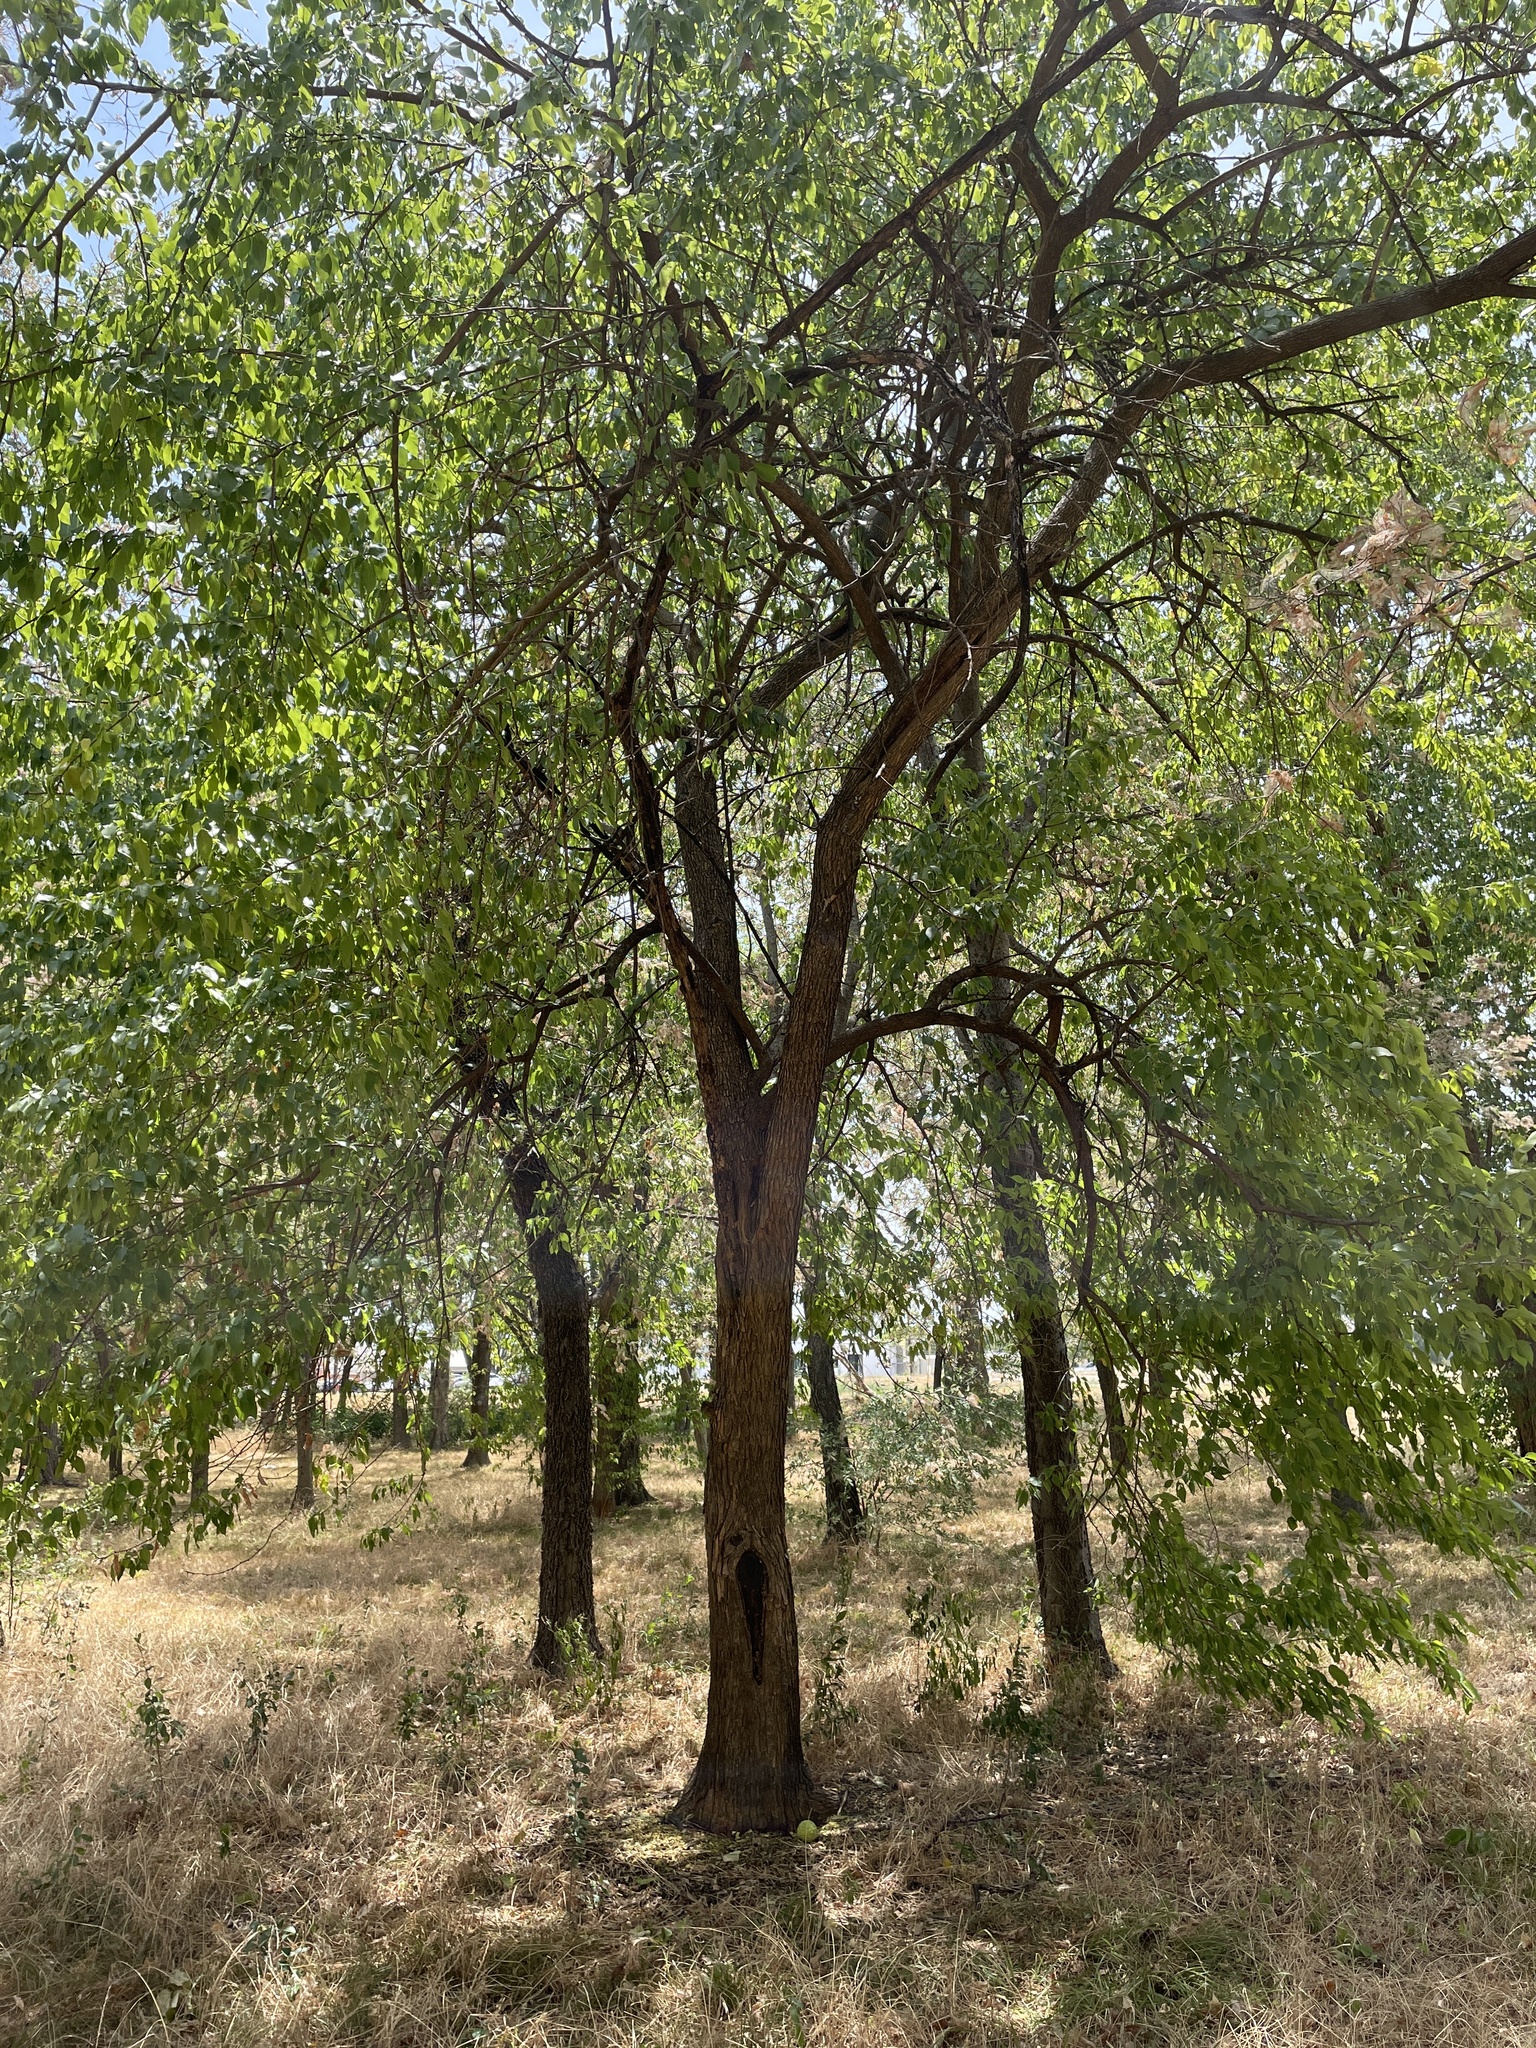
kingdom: Plantae
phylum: Tracheophyta
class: Magnoliopsida
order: Rosales
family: Moraceae
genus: Maclura
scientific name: Maclura pomifera
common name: Osage-orange
